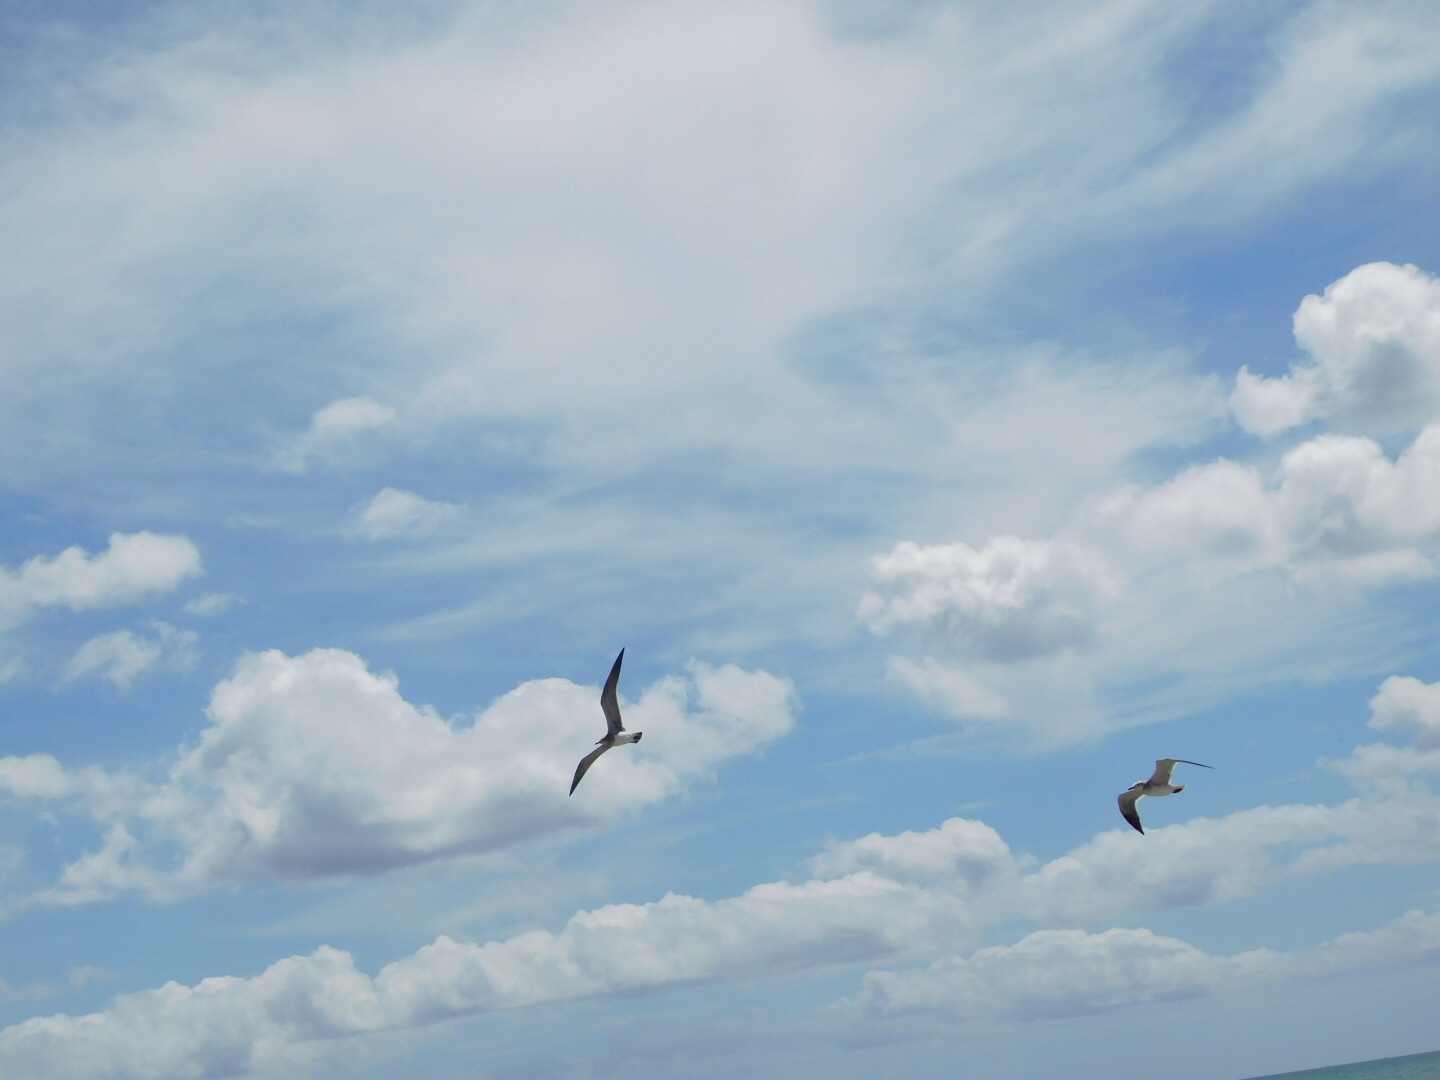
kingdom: Animalia
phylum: Chordata
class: Aves
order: Charadriiformes
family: Laridae
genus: Leucophaeus
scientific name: Leucophaeus atricilla
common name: Laughing gull
